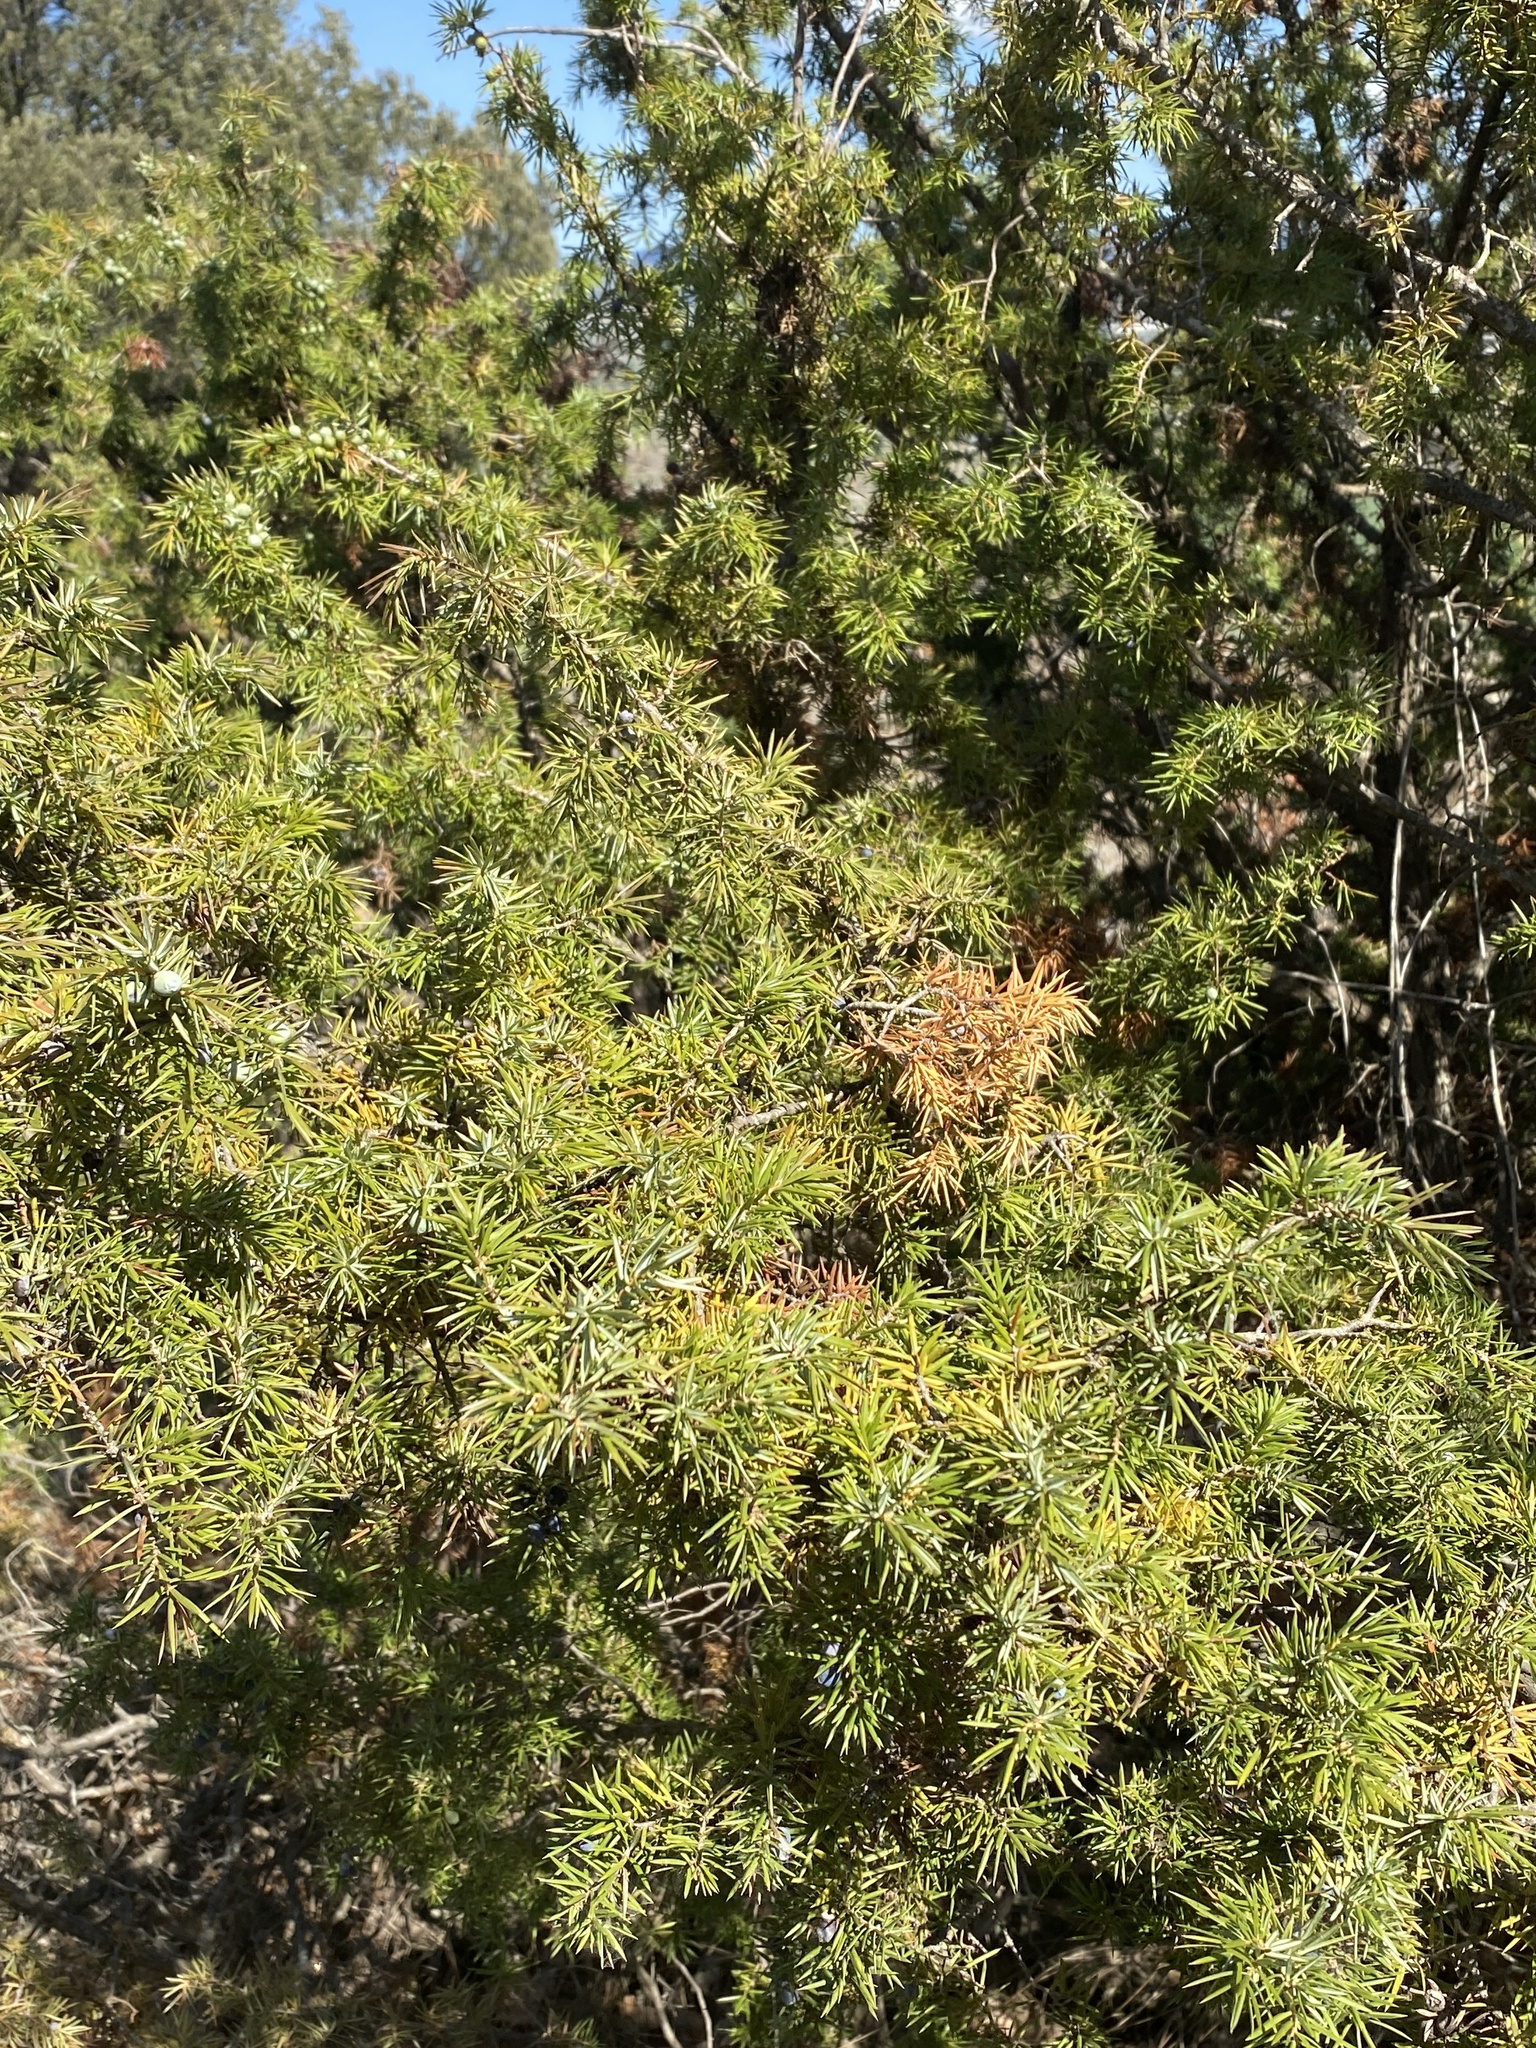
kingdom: Plantae
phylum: Tracheophyta
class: Pinopsida
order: Pinales
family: Cupressaceae
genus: Juniperus
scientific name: Juniperus communis
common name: Common juniper
